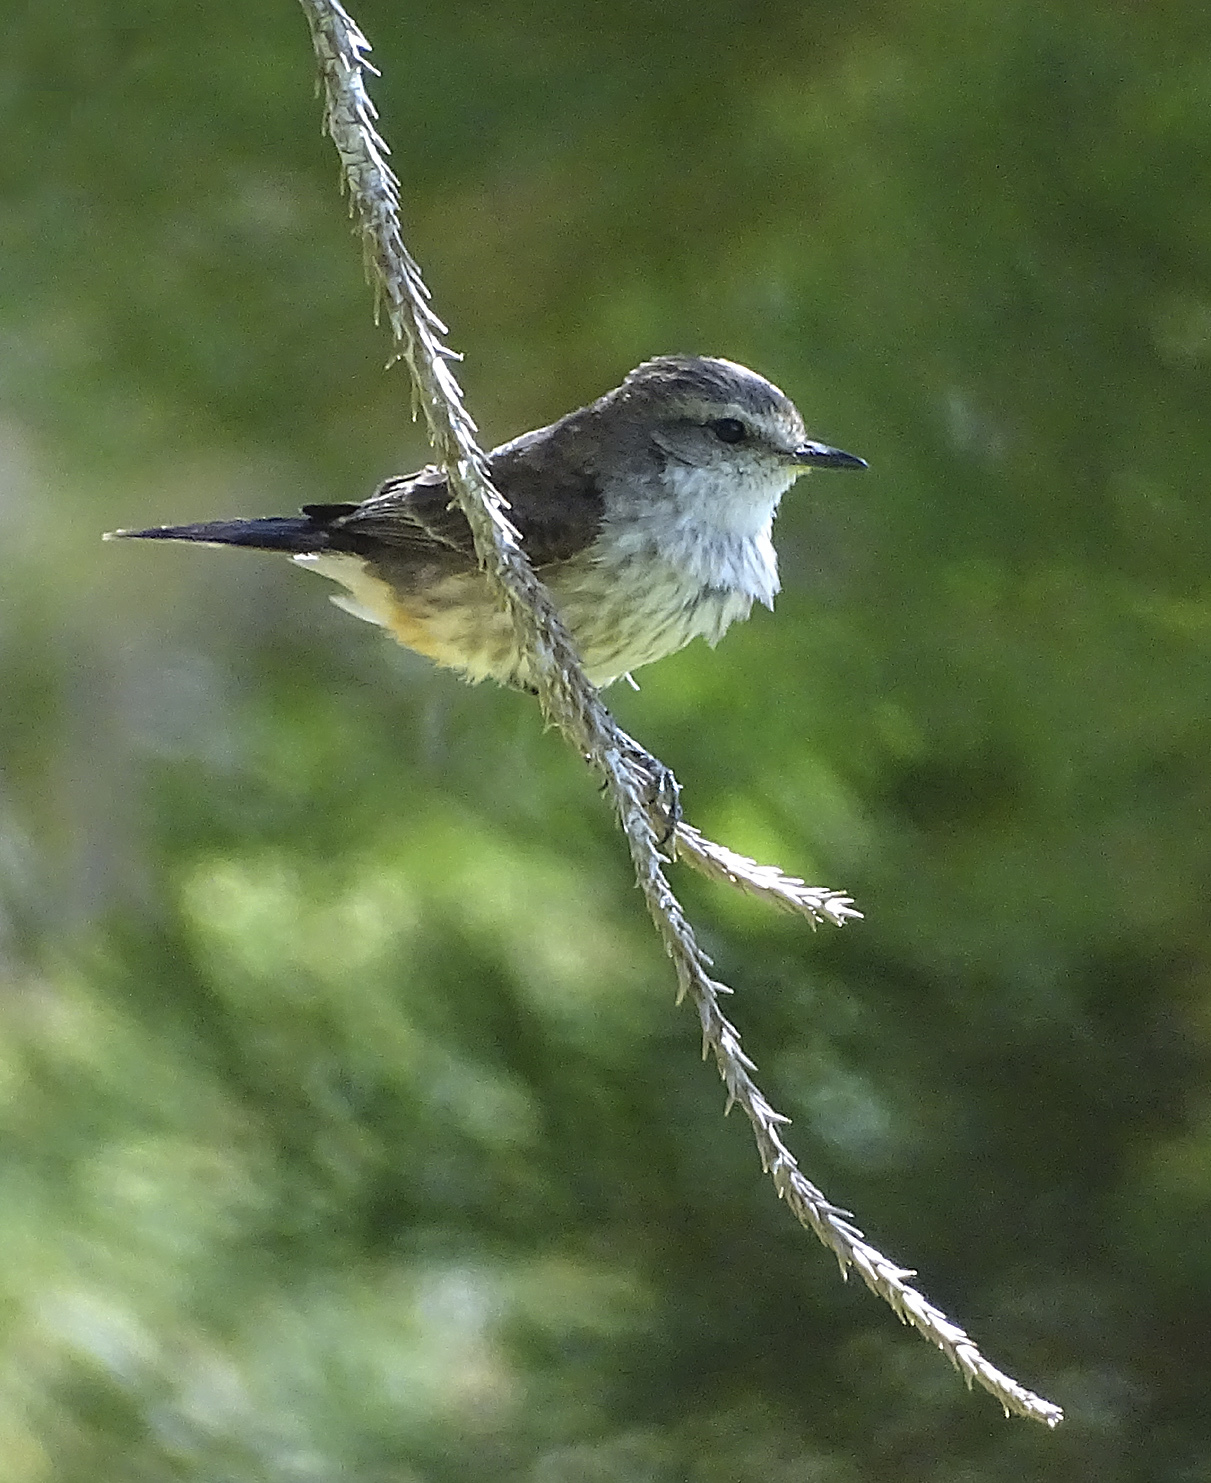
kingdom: Animalia
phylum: Chordata
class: Aves
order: Passeriformes
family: Tyrannidae
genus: Pyrocephalus
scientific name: Pyrocephalus rubinus
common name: Vermilion flycatcher
